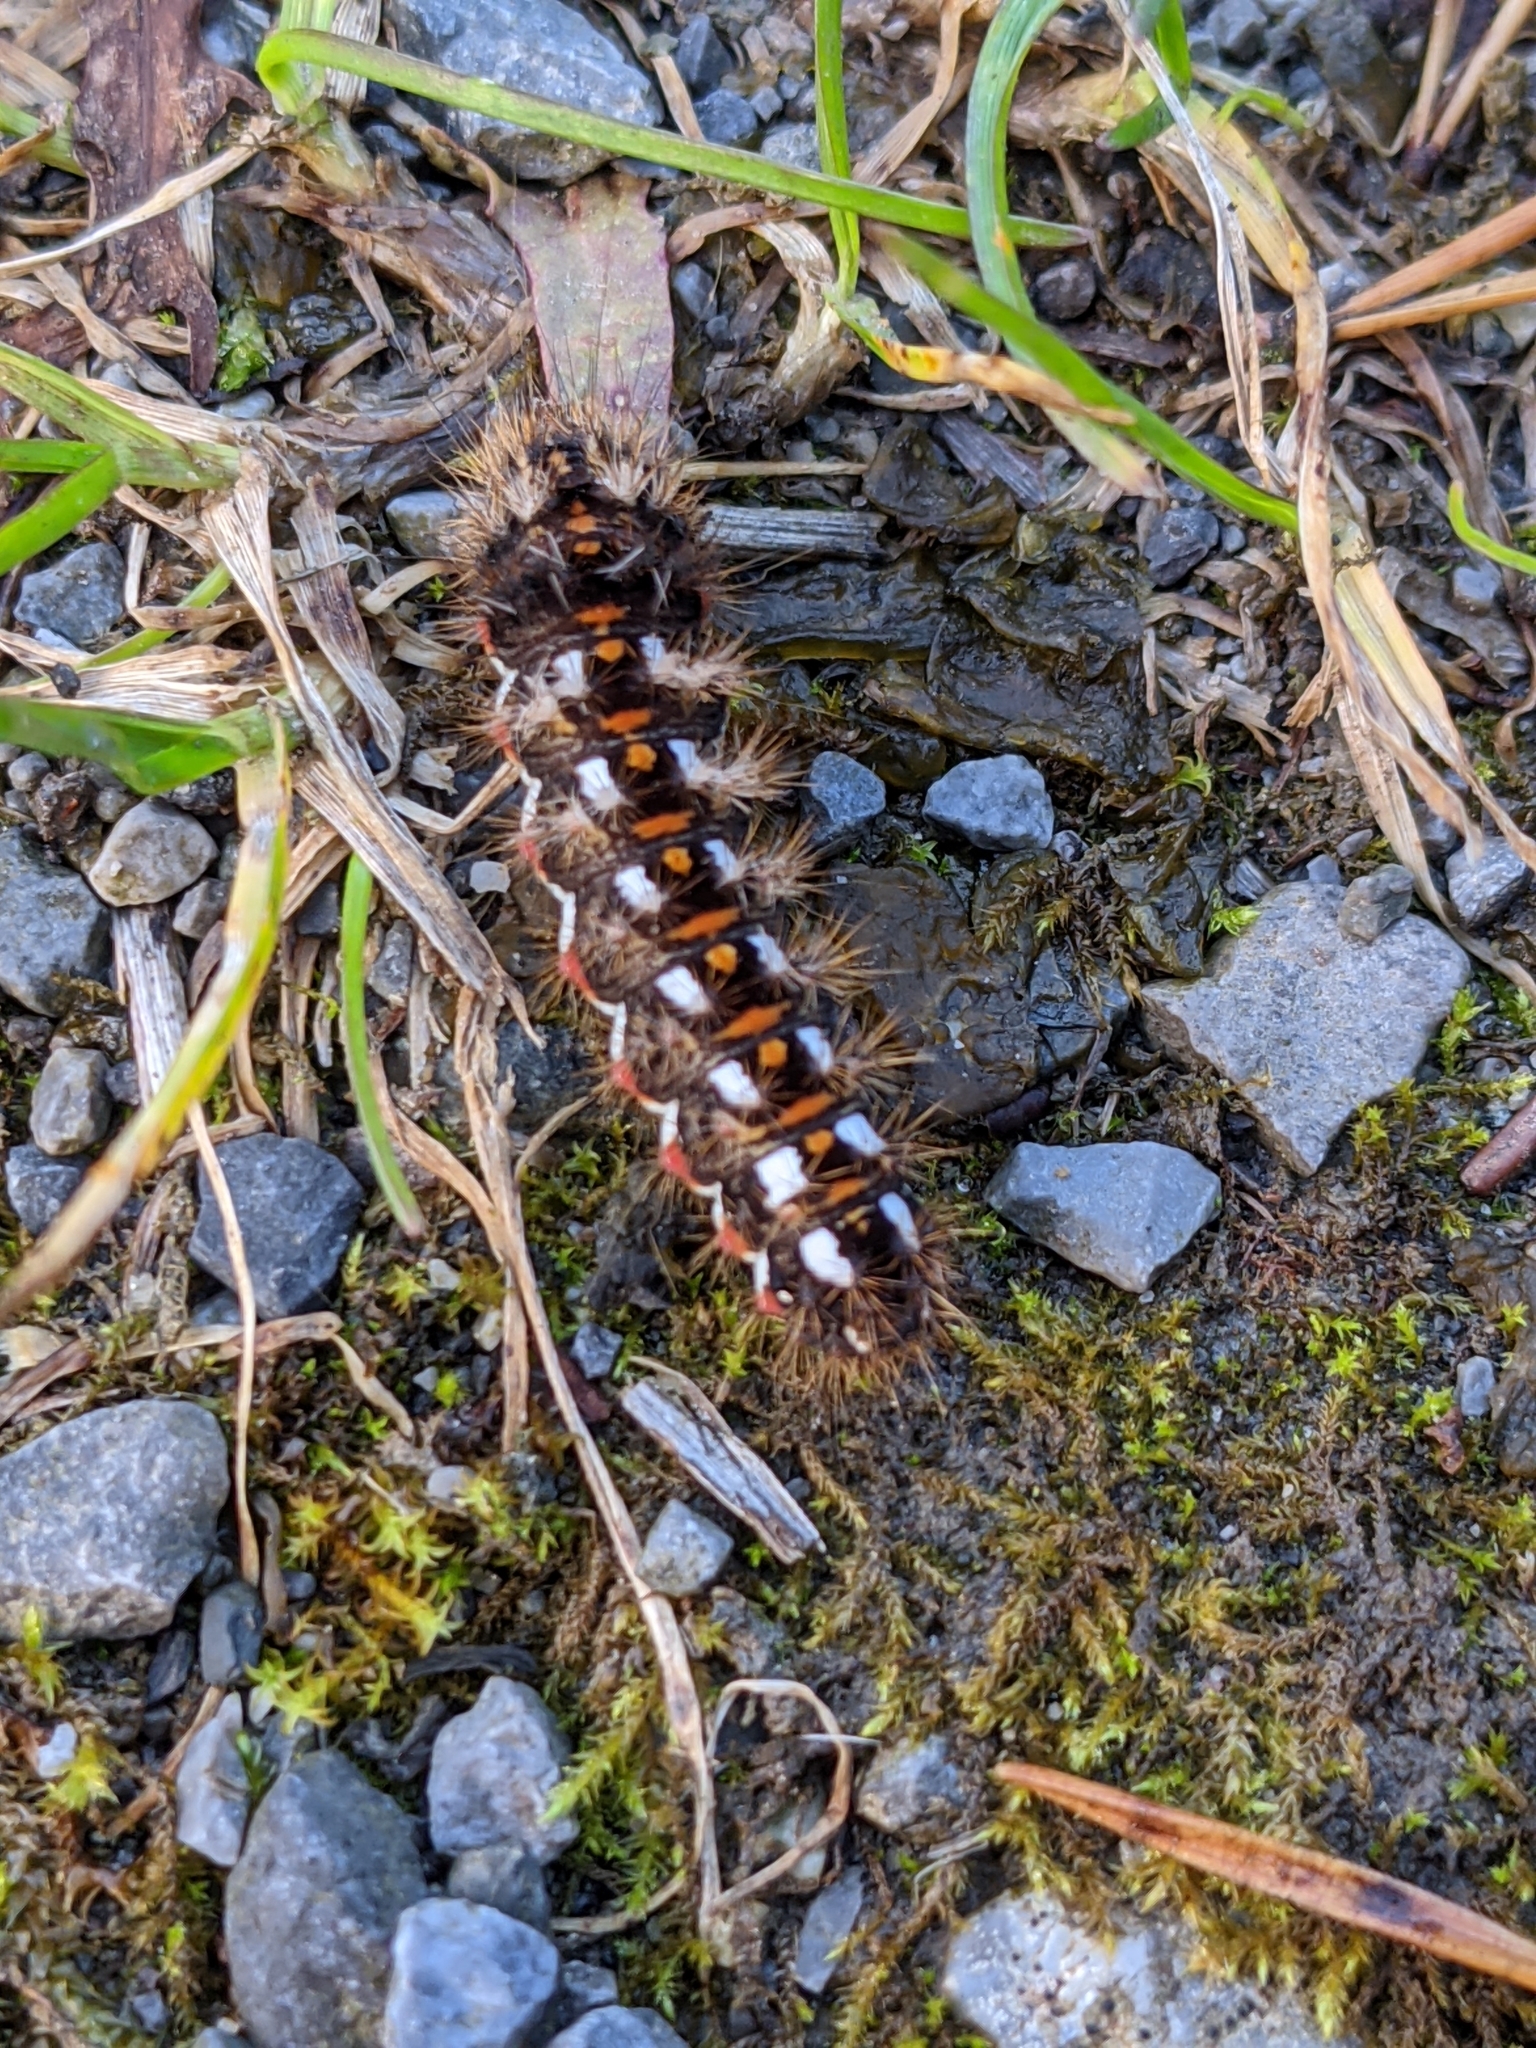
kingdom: Animalia
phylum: Arthropoda
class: Insecta
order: Lepidoptera
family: Noctuidae
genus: Acronicta
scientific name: Acronicta rumicis
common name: Knot grass
